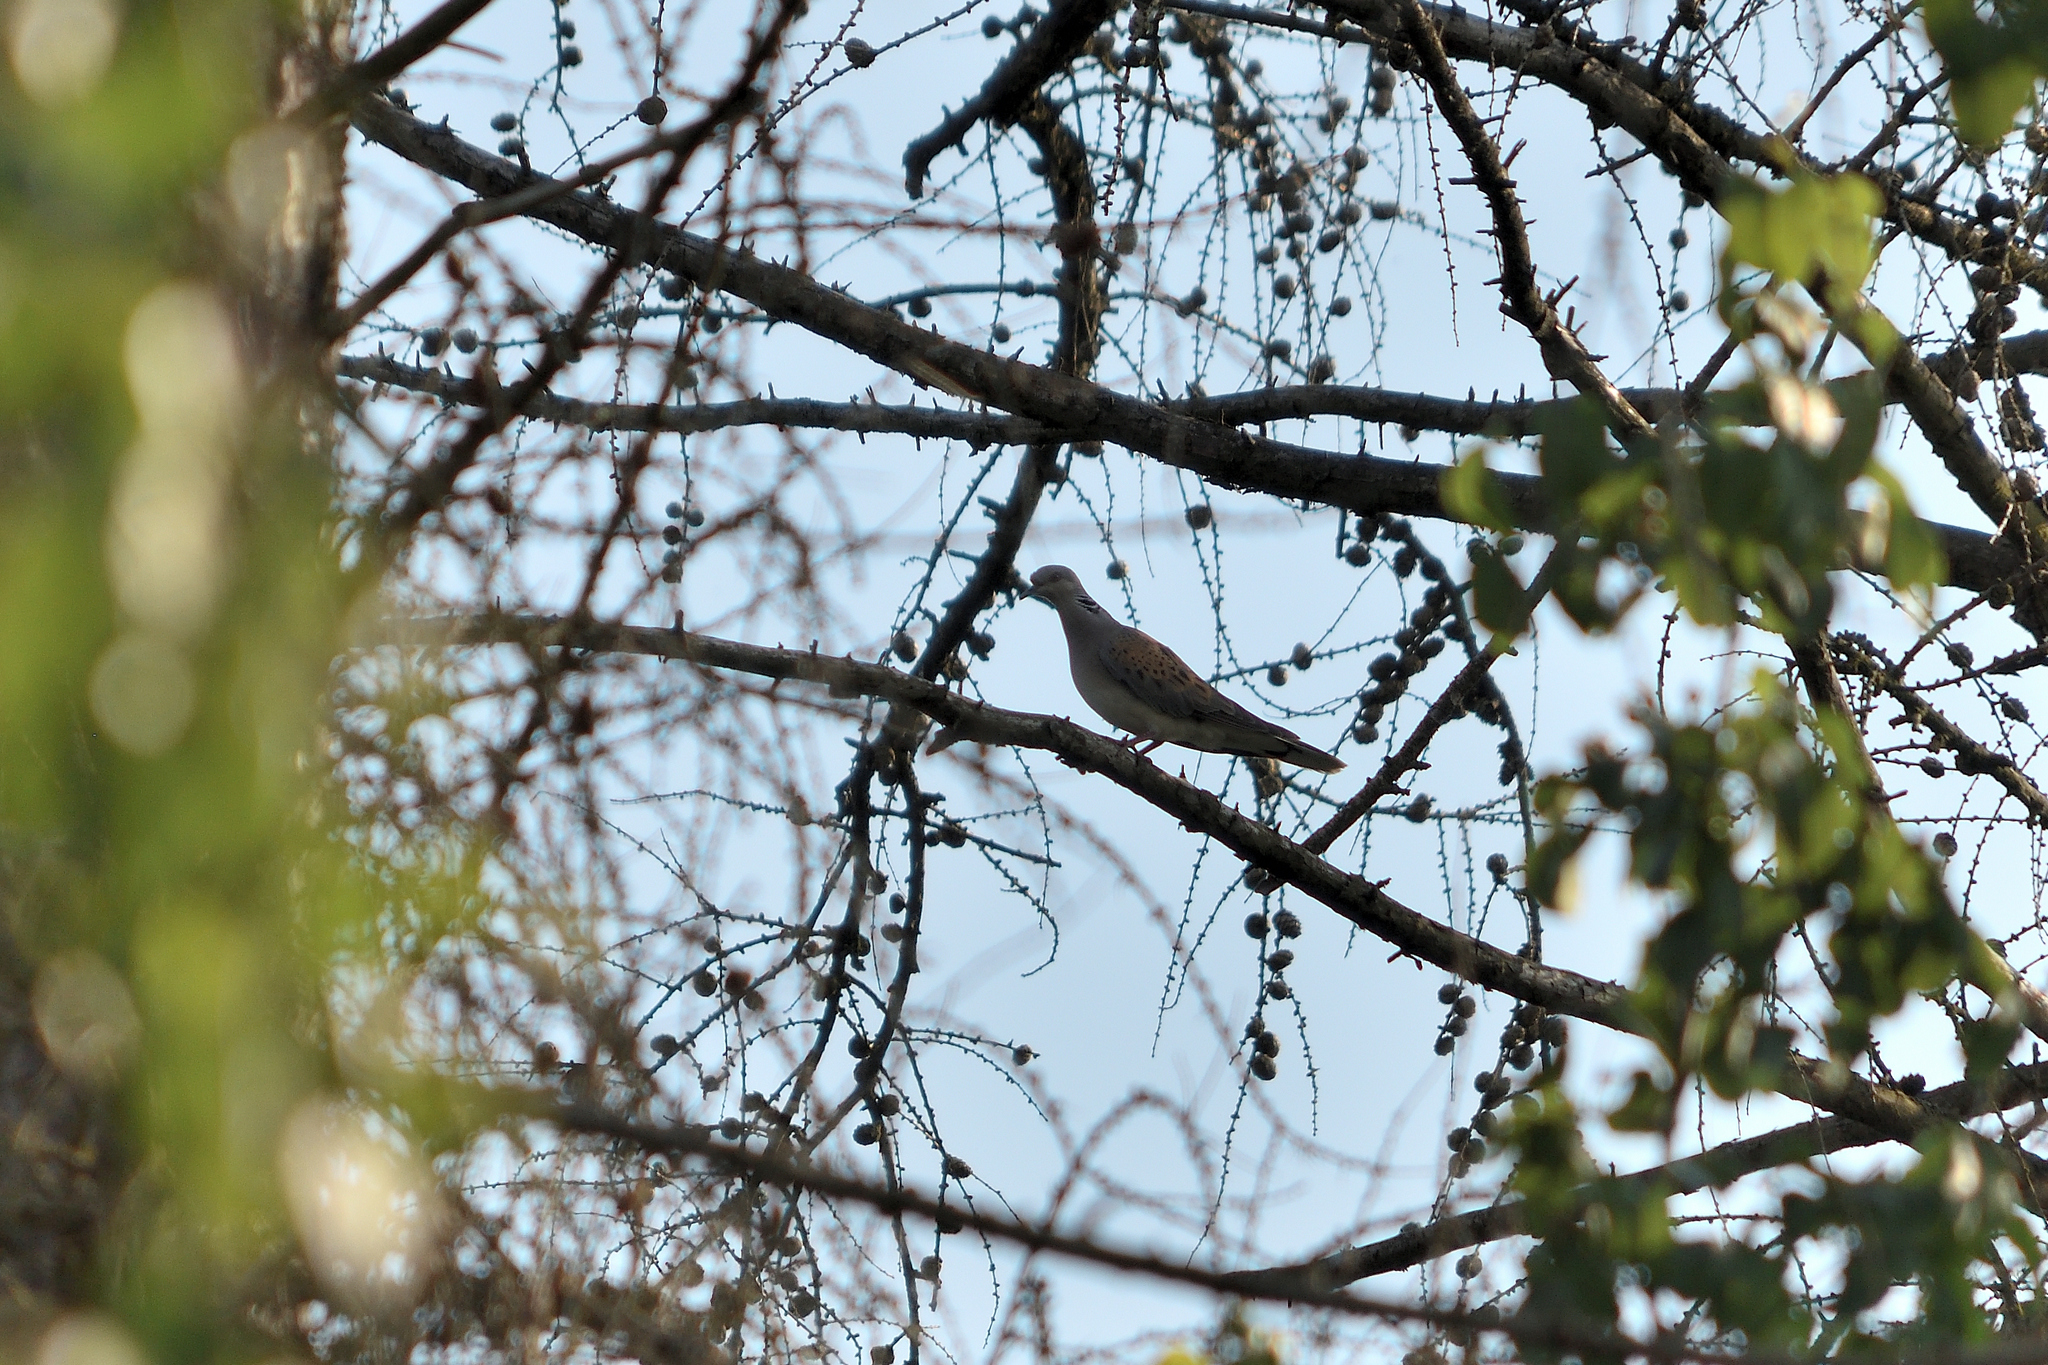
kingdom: Animalia
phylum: Chordata
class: Aves
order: Columbiformes
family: Columbidae
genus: Streptopelia
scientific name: Streptopelia turtur
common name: European turtle dove
